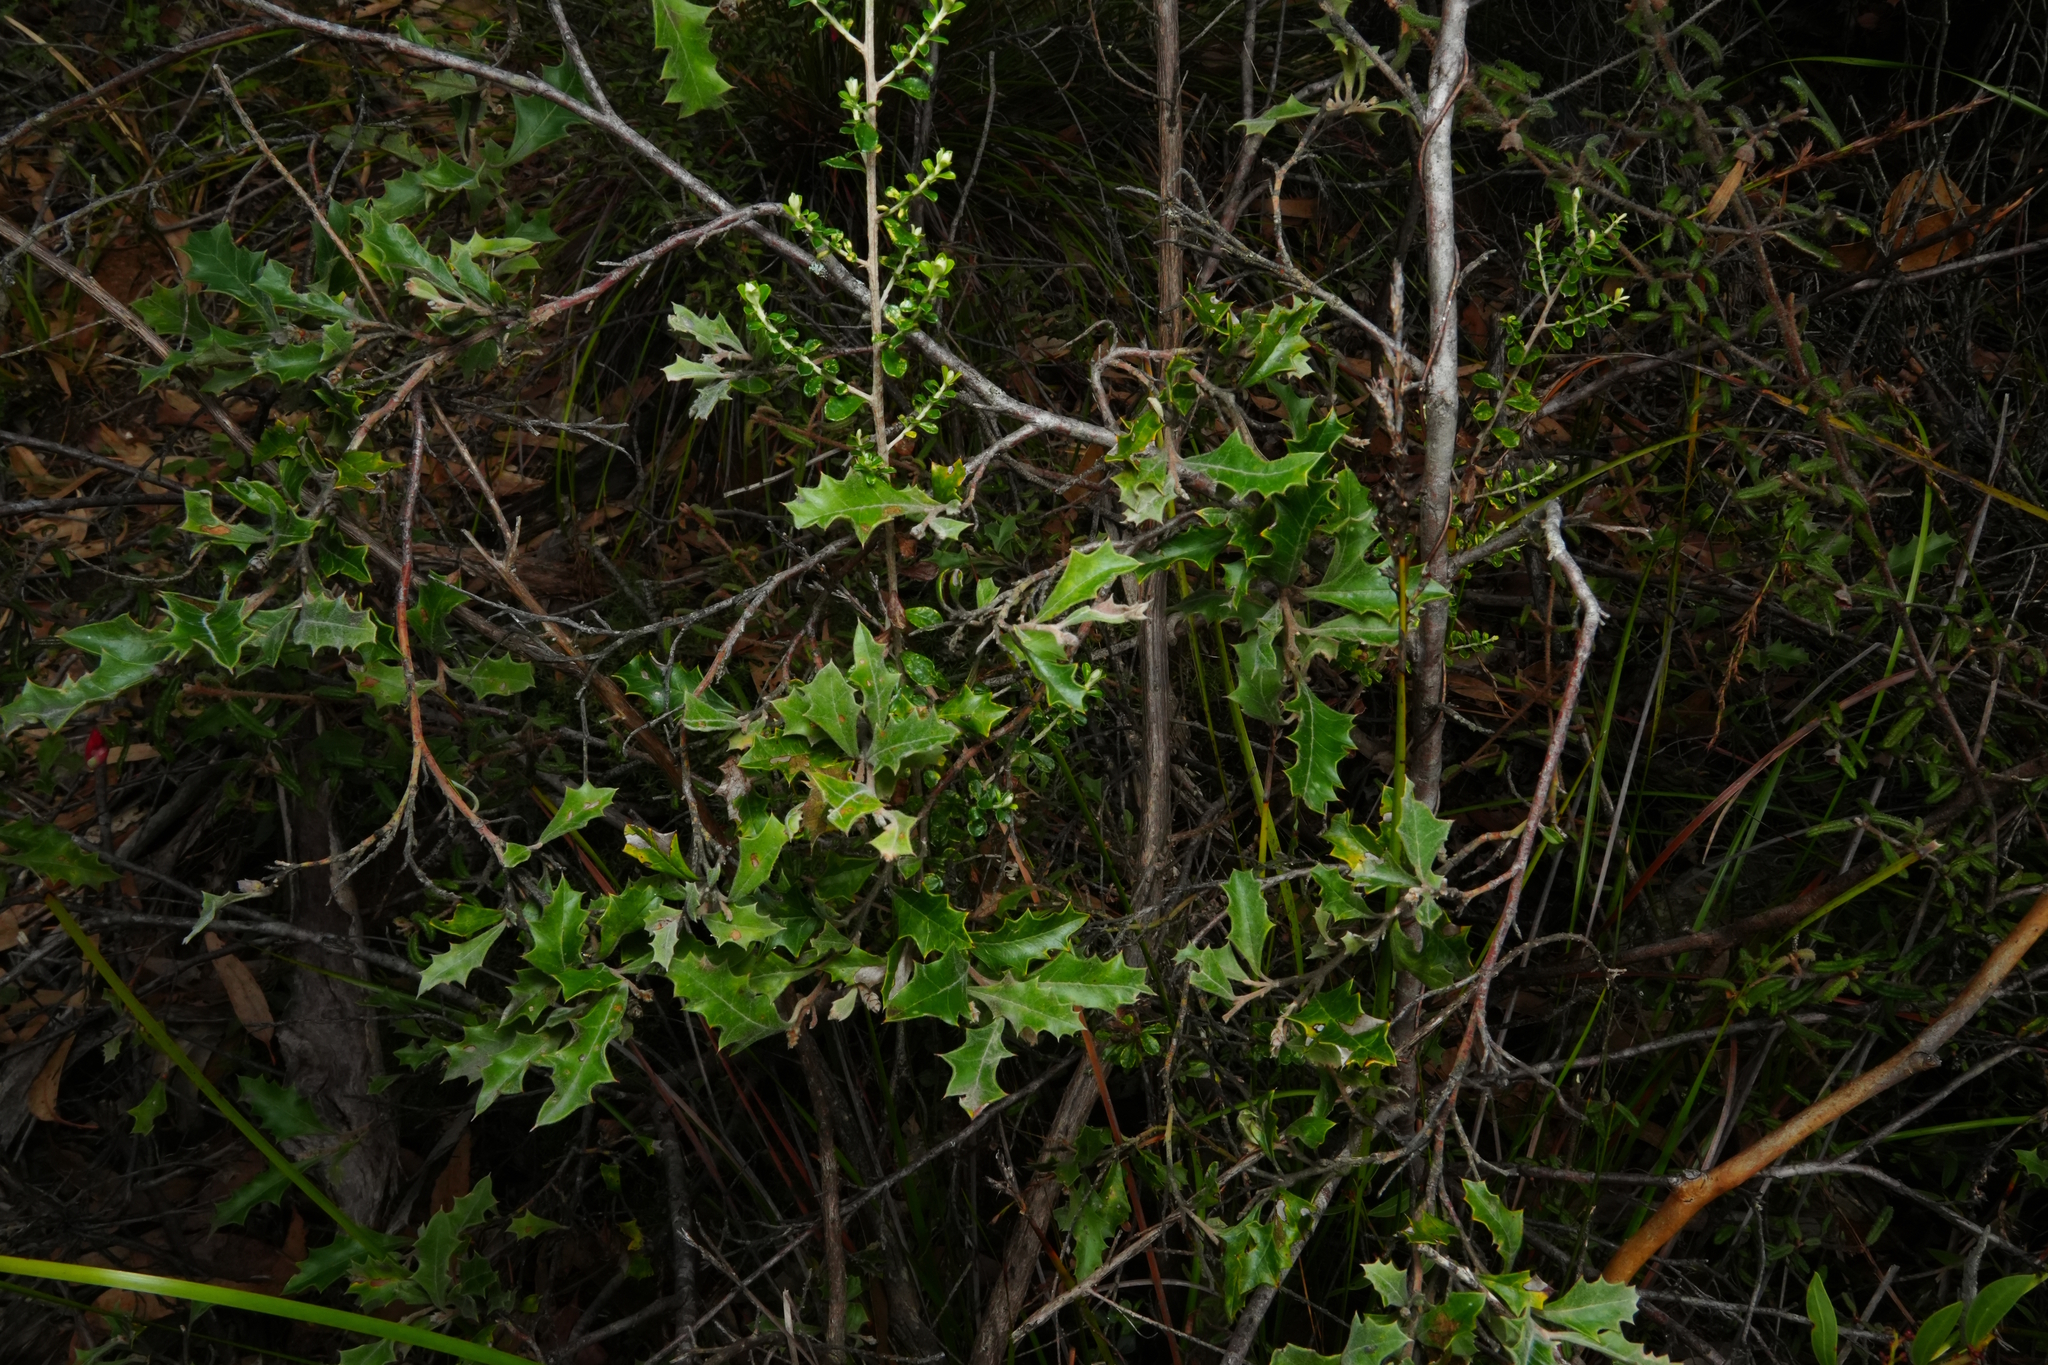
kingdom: Plantae
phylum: Tracheophyta
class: Magnoliopsida
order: Proteales
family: Proteaceae
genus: Grevillea
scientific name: Grevillea aquifolium
